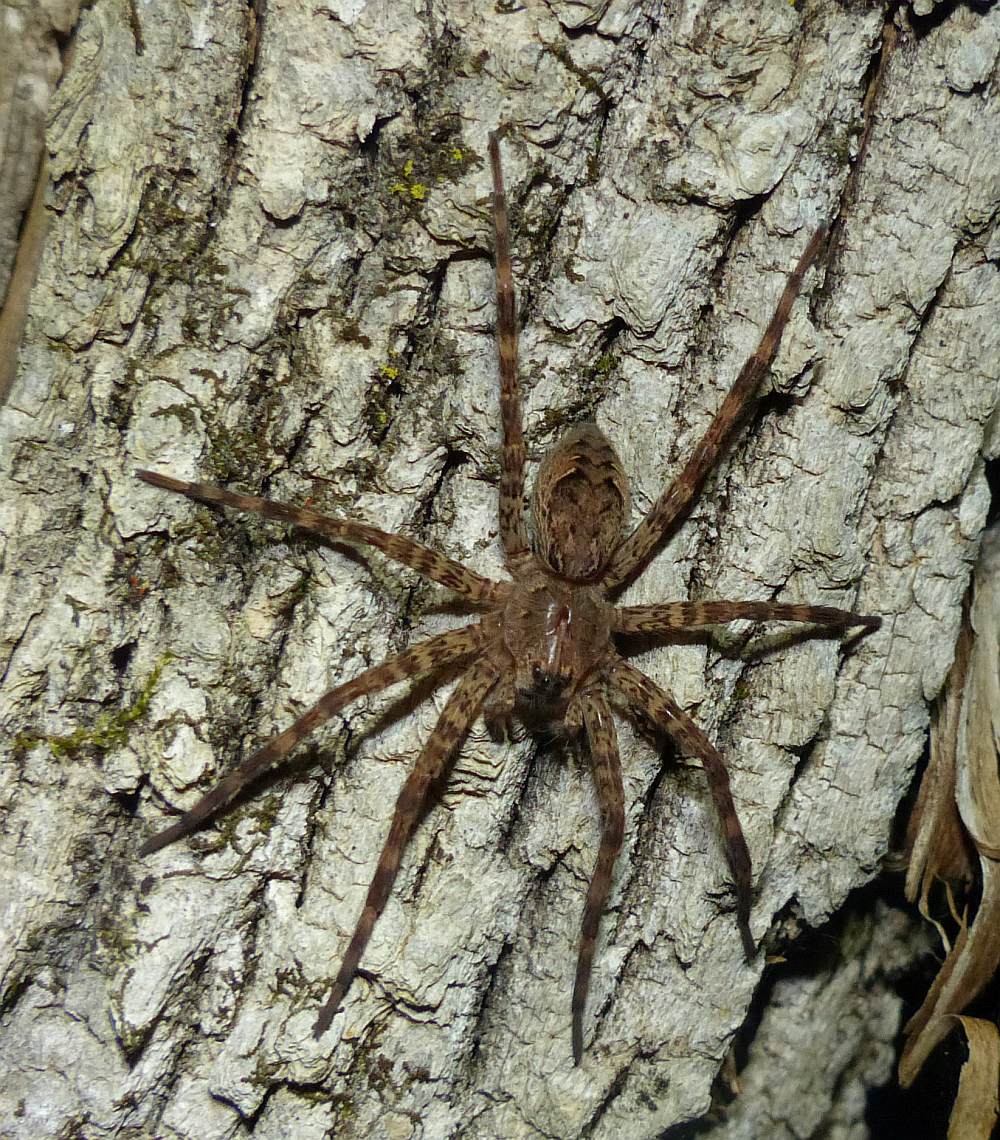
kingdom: Animalia
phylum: Arthropoda
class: Arachnida
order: Araneae
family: Pisauridae
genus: Dolomedes
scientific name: Dolomedes tenebrosus
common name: Dark fishing spider
